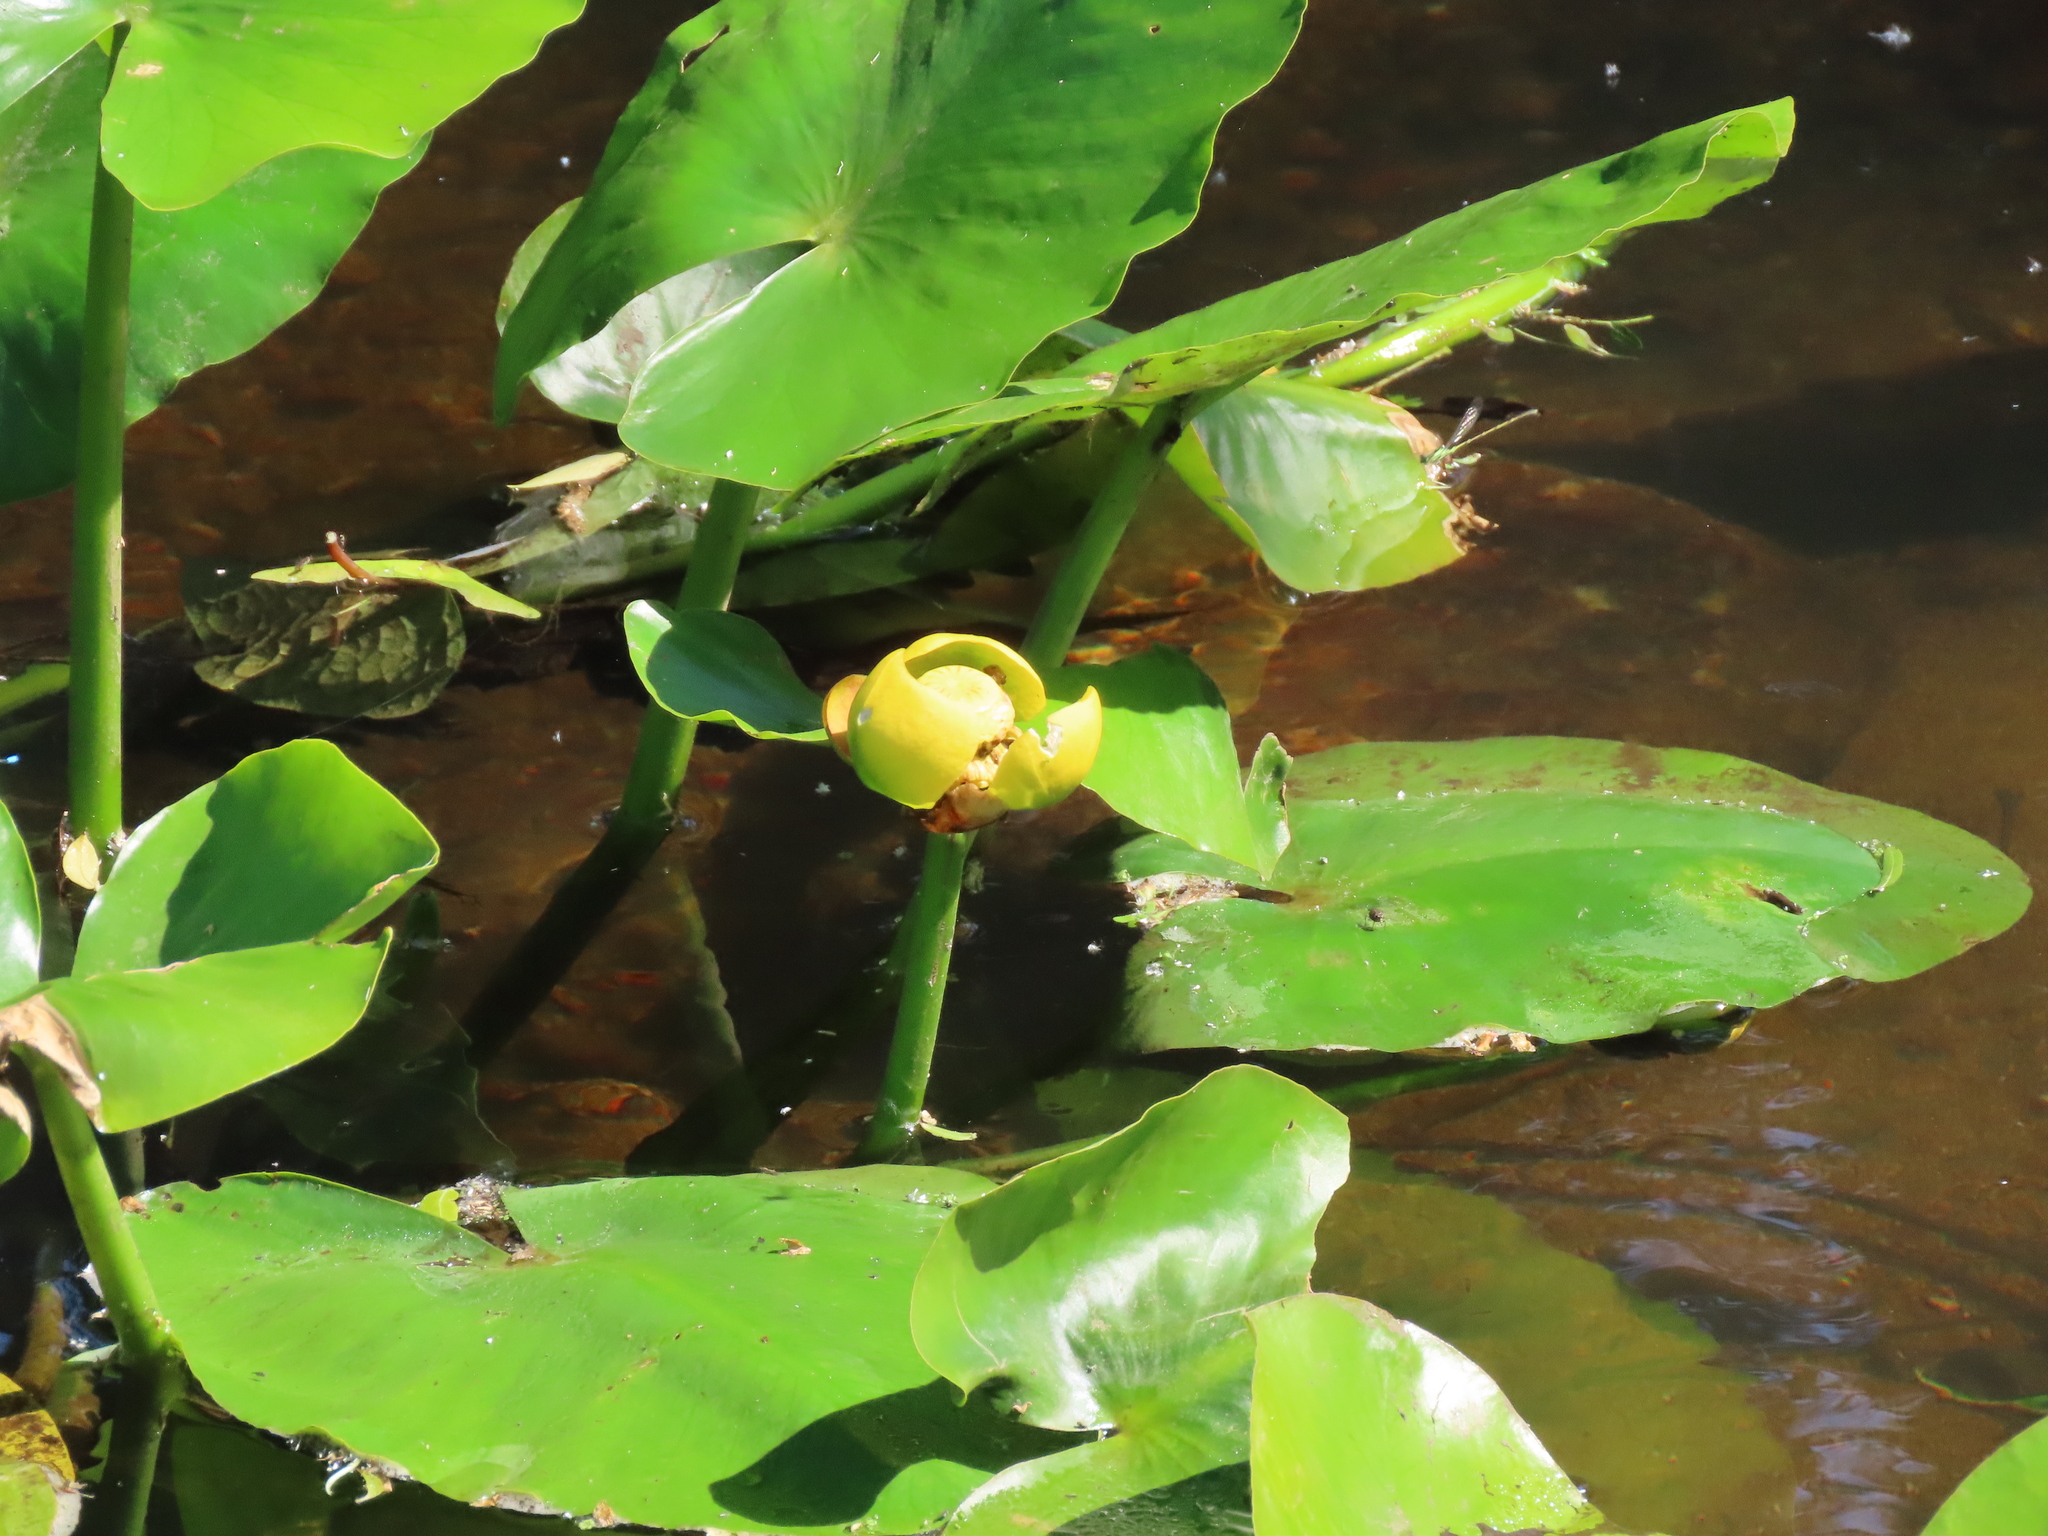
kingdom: Plantae
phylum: Tracheophyta
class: Magnoliopsida
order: Nymphaeales
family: Nymphaeaceae
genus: Nuphar
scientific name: Nuphar advena
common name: Spatter-dock
